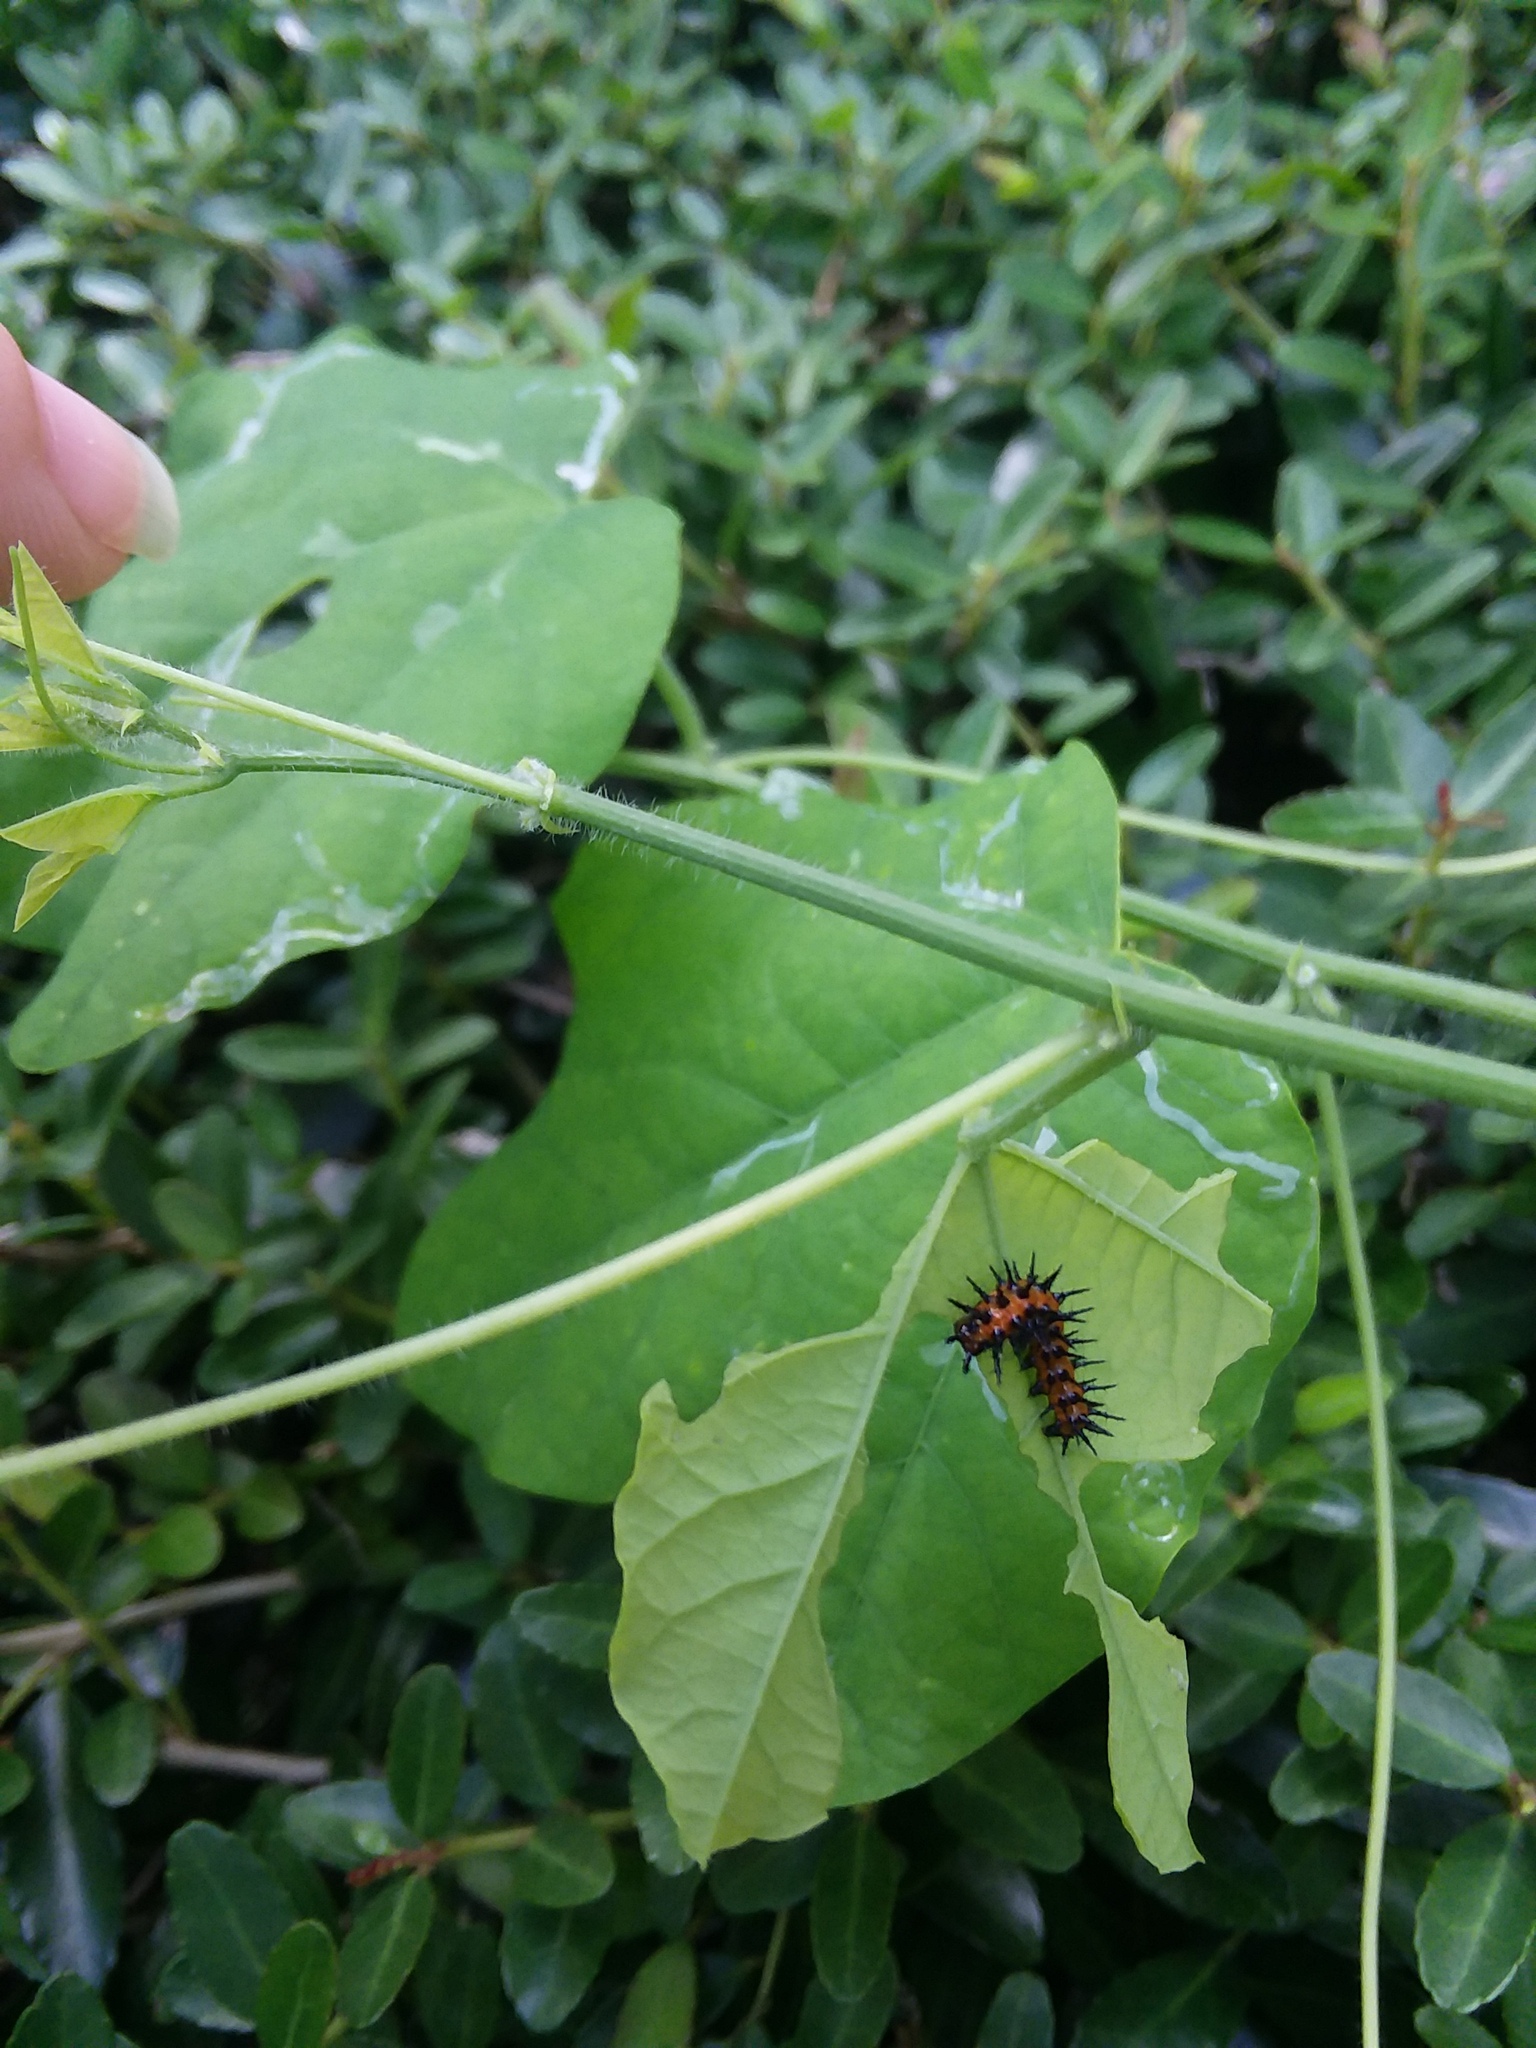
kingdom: Animalia
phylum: Arthropoda
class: Insecta
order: Lepidoptera
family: Nymphalidae
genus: Dione
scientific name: Dione vanillae
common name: Gulf fritillary
